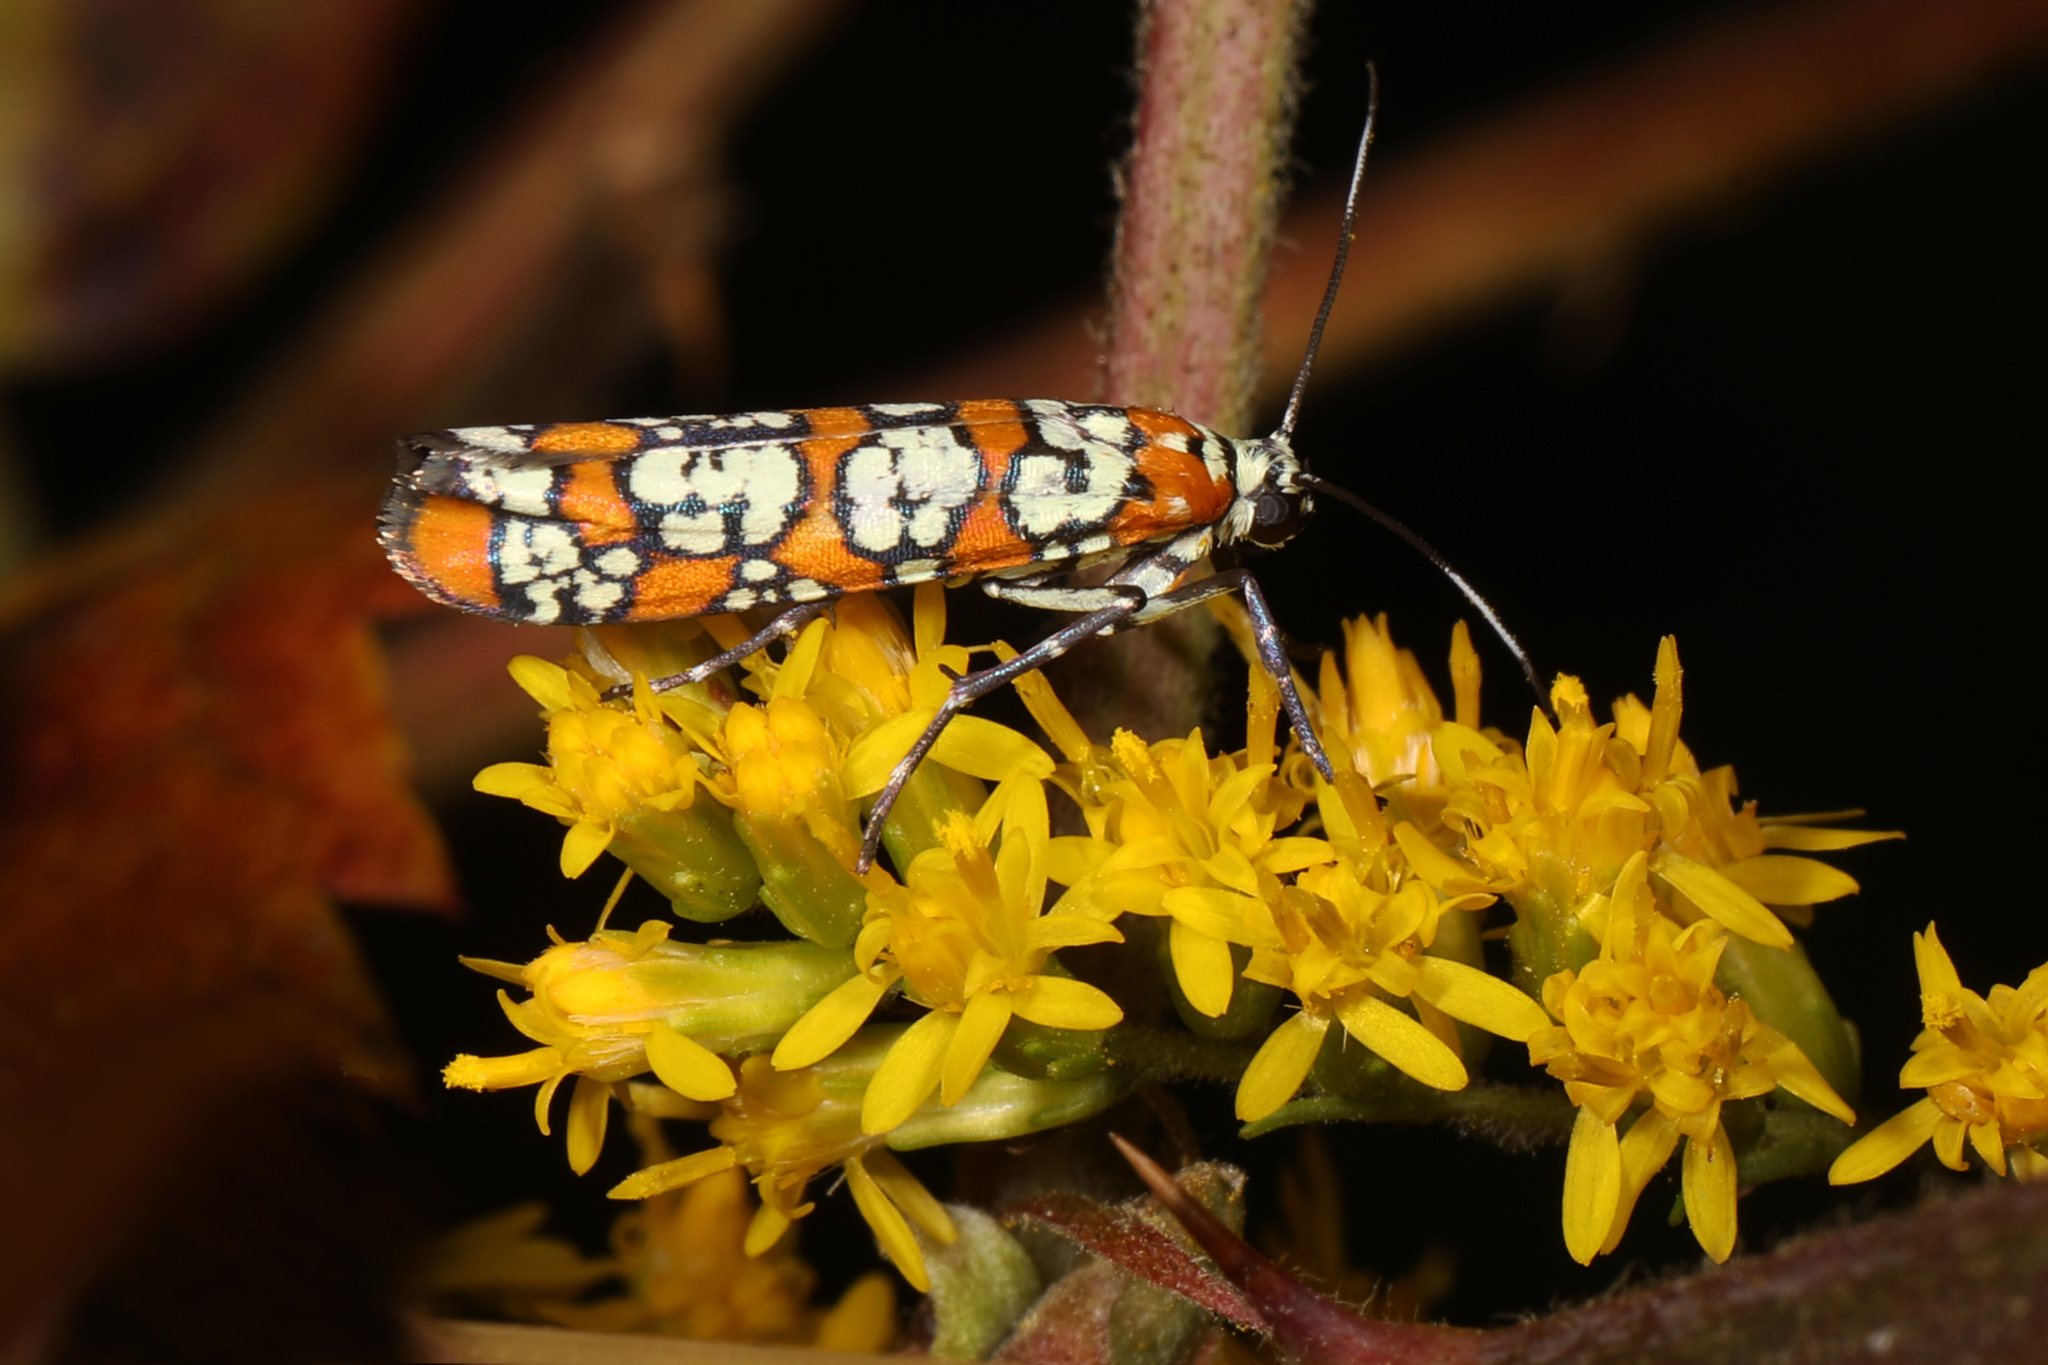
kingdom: Animalia
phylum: Arthropoda
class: Insecta
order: Lepidoptera
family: Attevidae
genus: Atteva
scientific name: Atteva punctella
